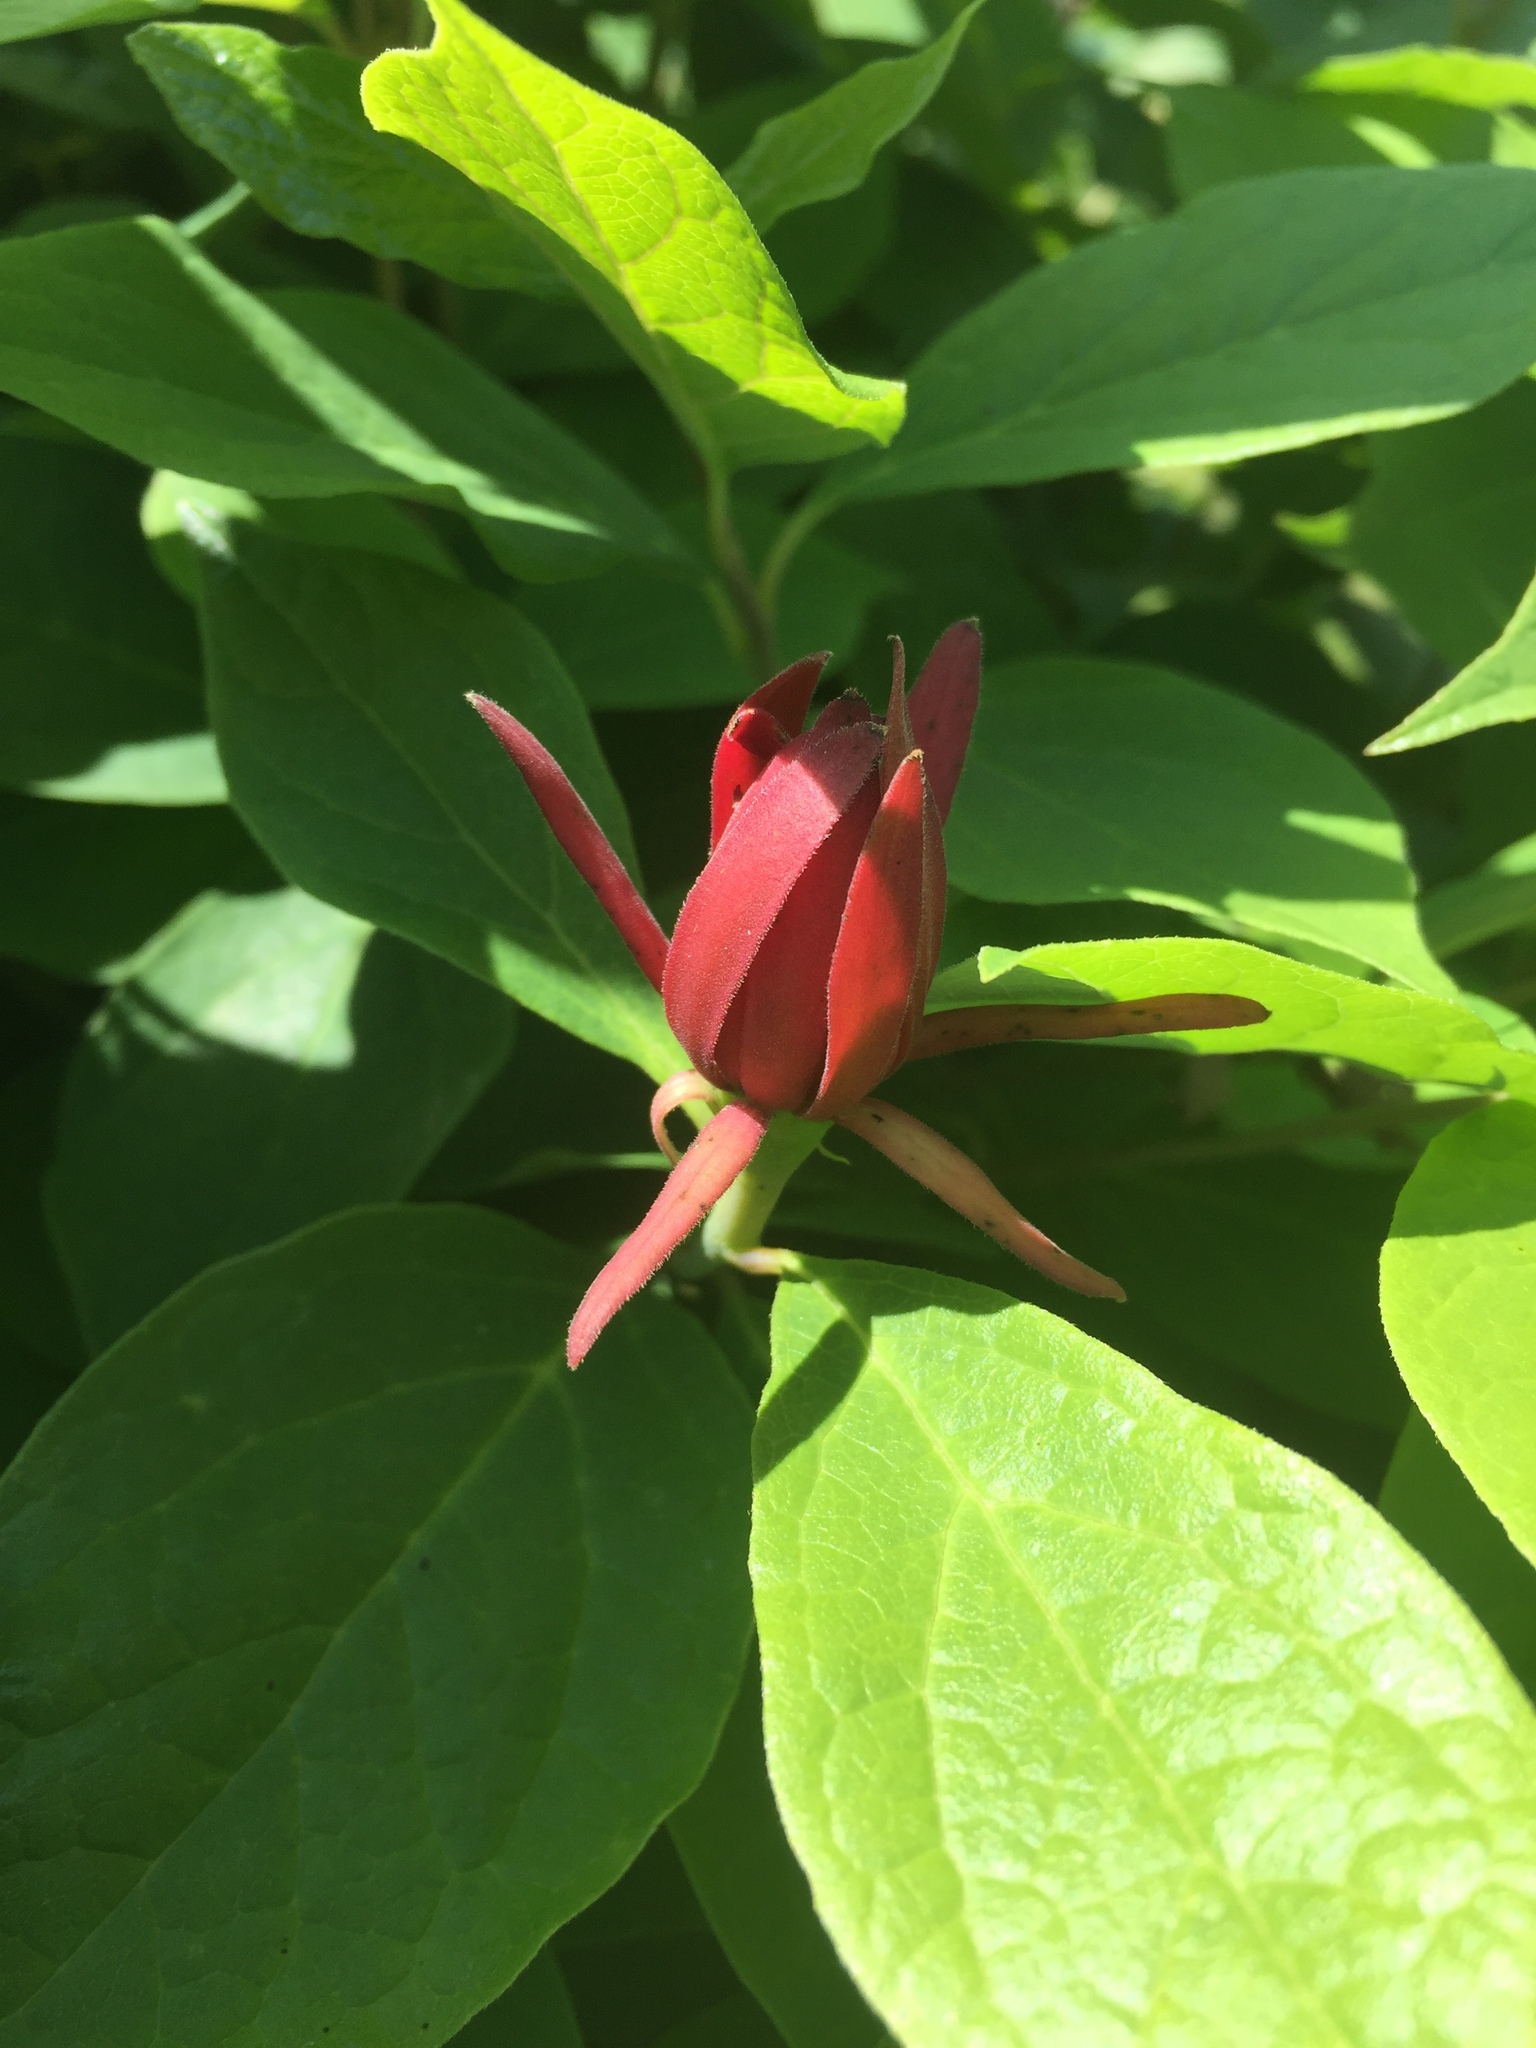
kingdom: Plantae
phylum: Tracheophyta
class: Magnoliopsida
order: Laurales
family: Calycanthaceae
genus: Calycanthus
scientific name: Calycanthus floridus
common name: Carolina-allspice
